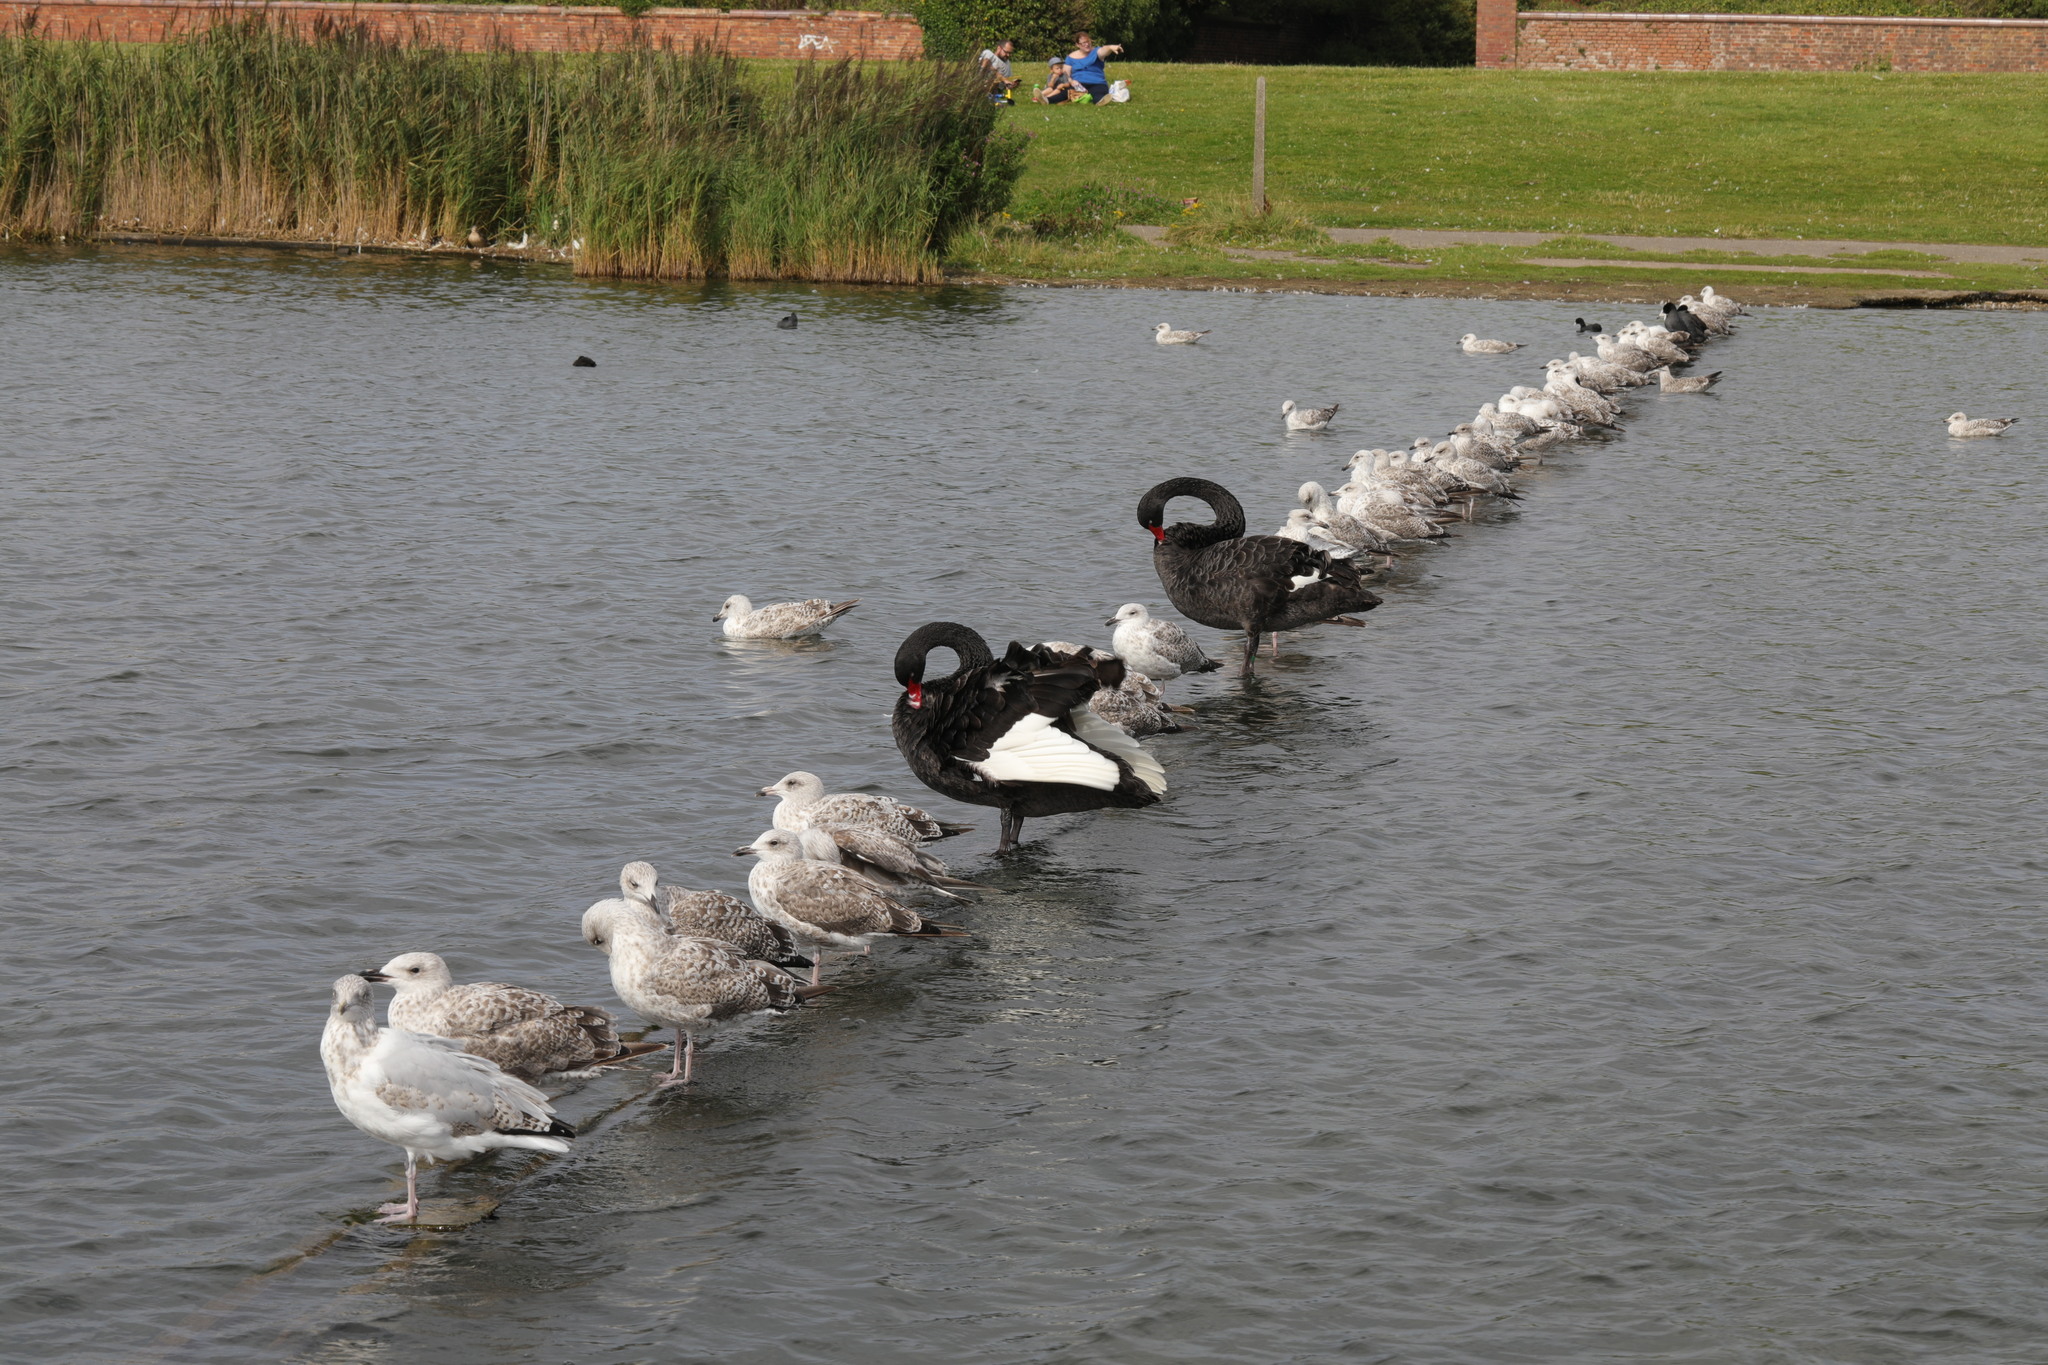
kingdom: Animalia
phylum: Chordata
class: Aves
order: Charadriiformes
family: Laridae
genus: Larus
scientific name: Larus argentatus
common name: Herring gull
